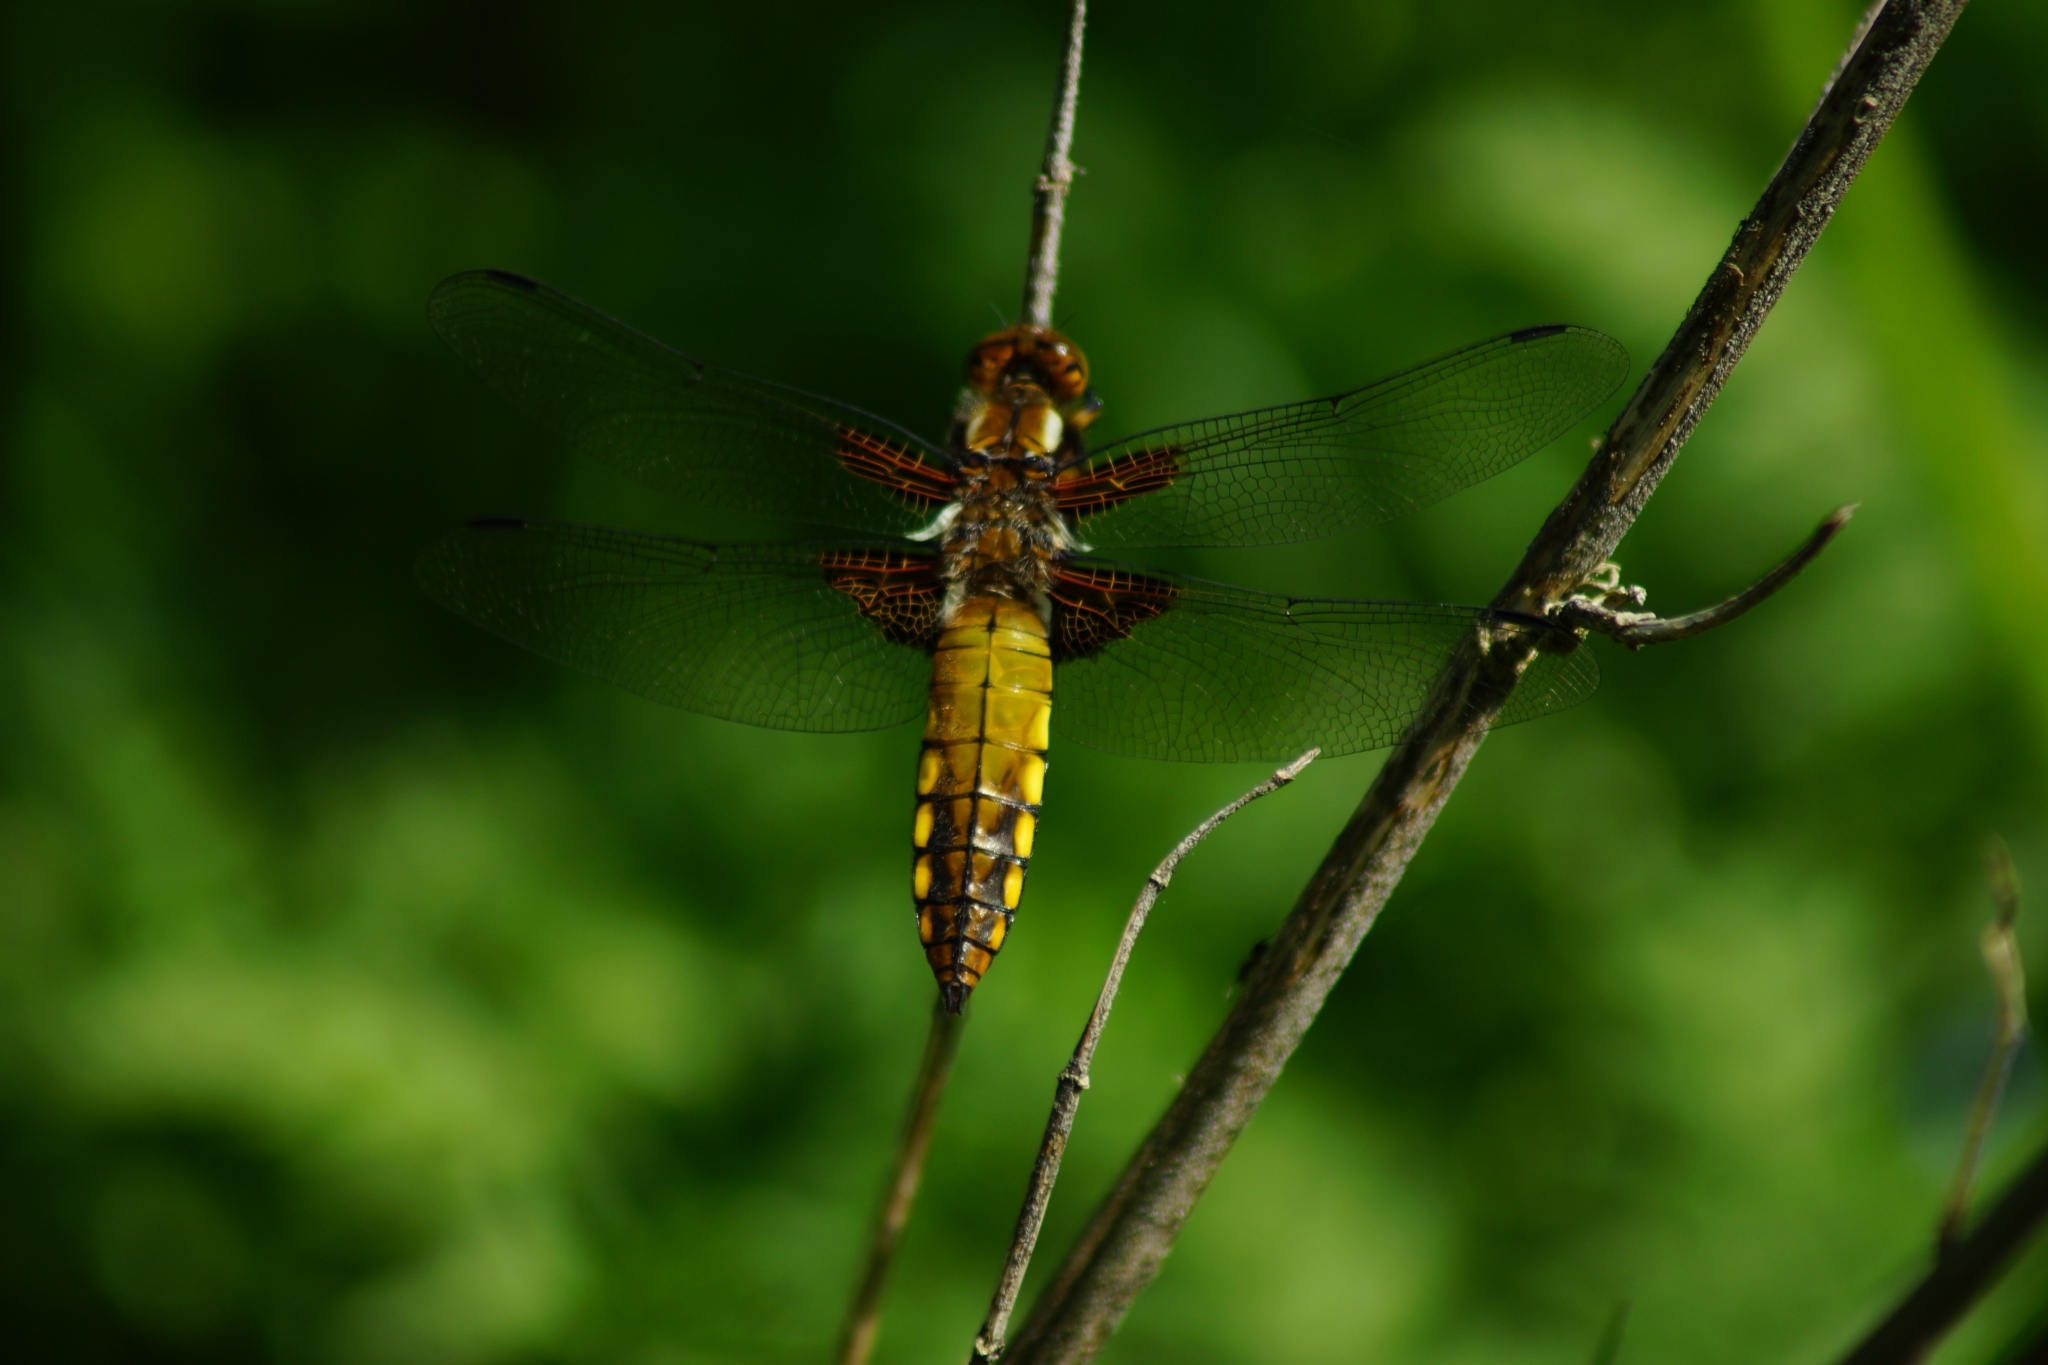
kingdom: Animalia
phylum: Arthropoda
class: Insecta
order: Odonata
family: Libellulidae
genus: Libellula
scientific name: Libellula depressa
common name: Broad-bodied chaser
